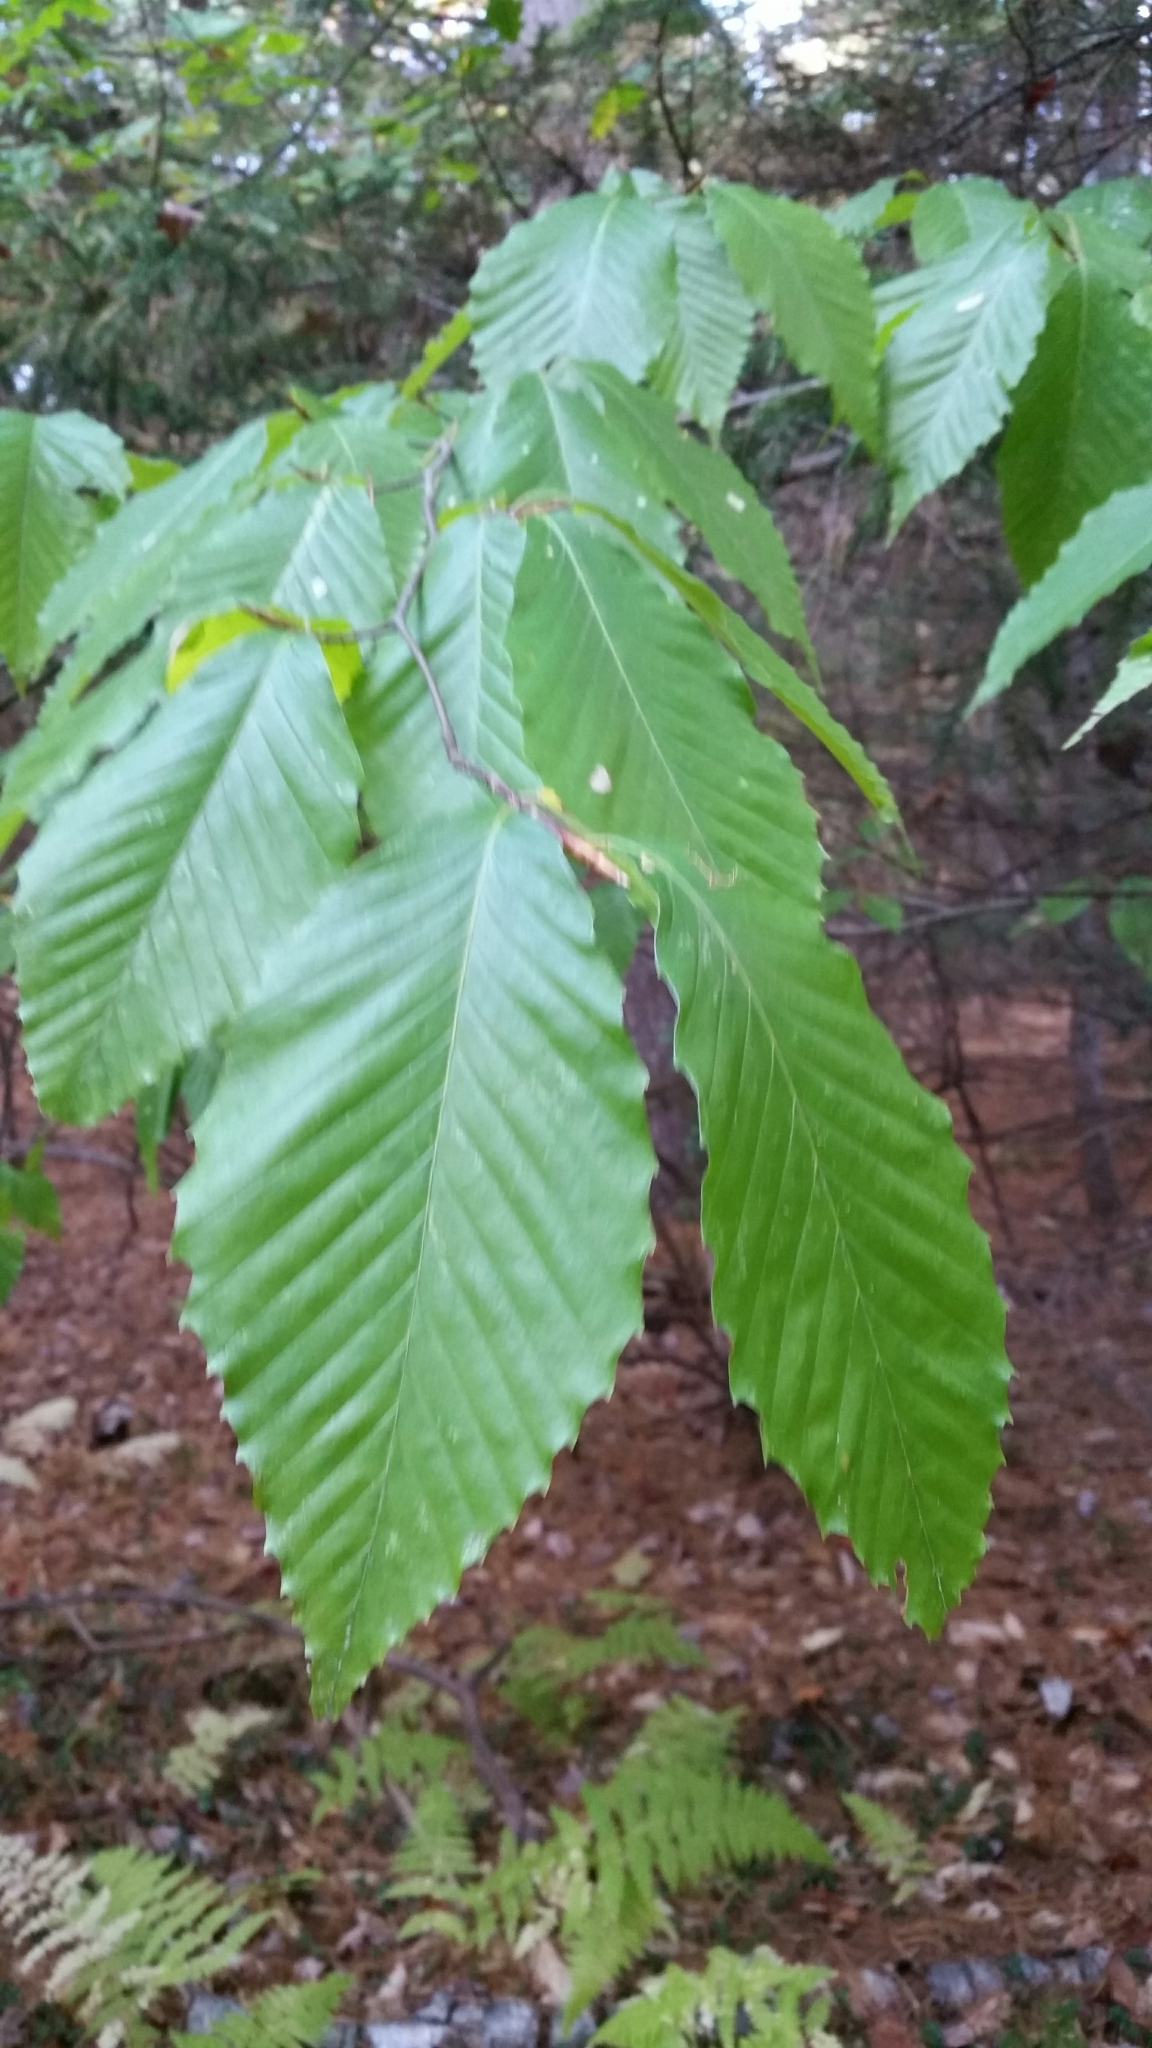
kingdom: Plantae
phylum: Tracheophyta
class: Magnoliopsida
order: Fagales
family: Fagaceae
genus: Fagus
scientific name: Fagus grandifolia
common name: American beech
